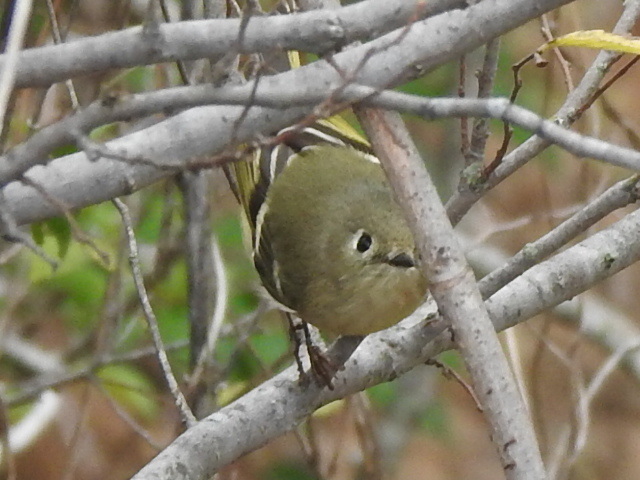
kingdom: Animalia
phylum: Chordata
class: Aves
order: Passeriformes
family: Regulidae
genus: Regulus
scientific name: Regulus calendula
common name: Ruby-crowned kinglet
